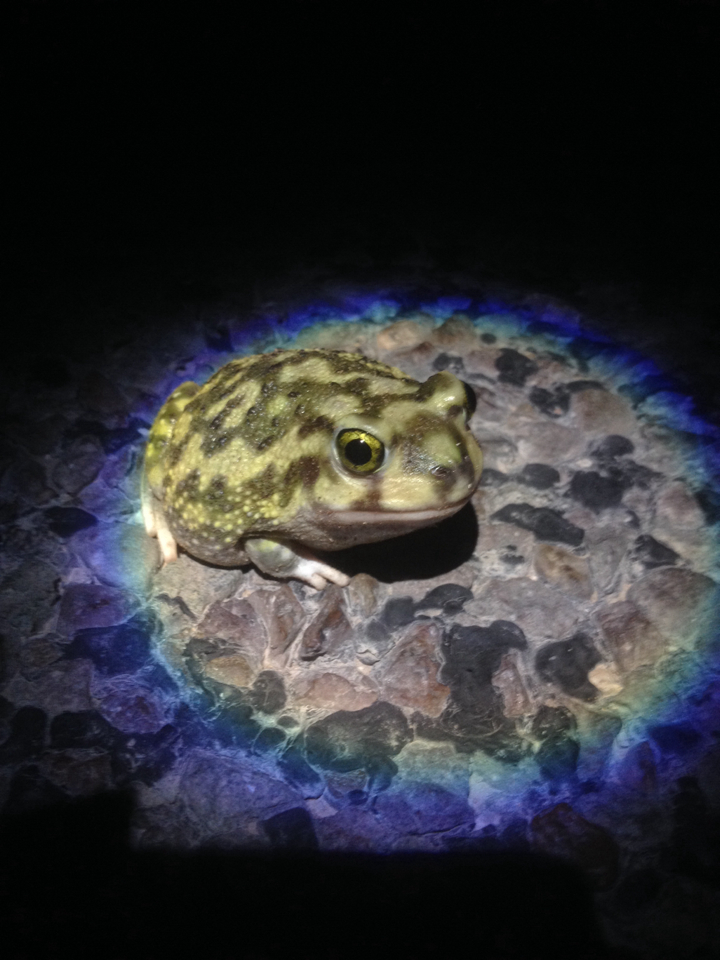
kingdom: Animalia
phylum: Chordata
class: Amphibia
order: Anura
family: Scaphiopodidae
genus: Scaphiopus
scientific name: Scaphiopus couchii
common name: Couch's spadefoot toad
